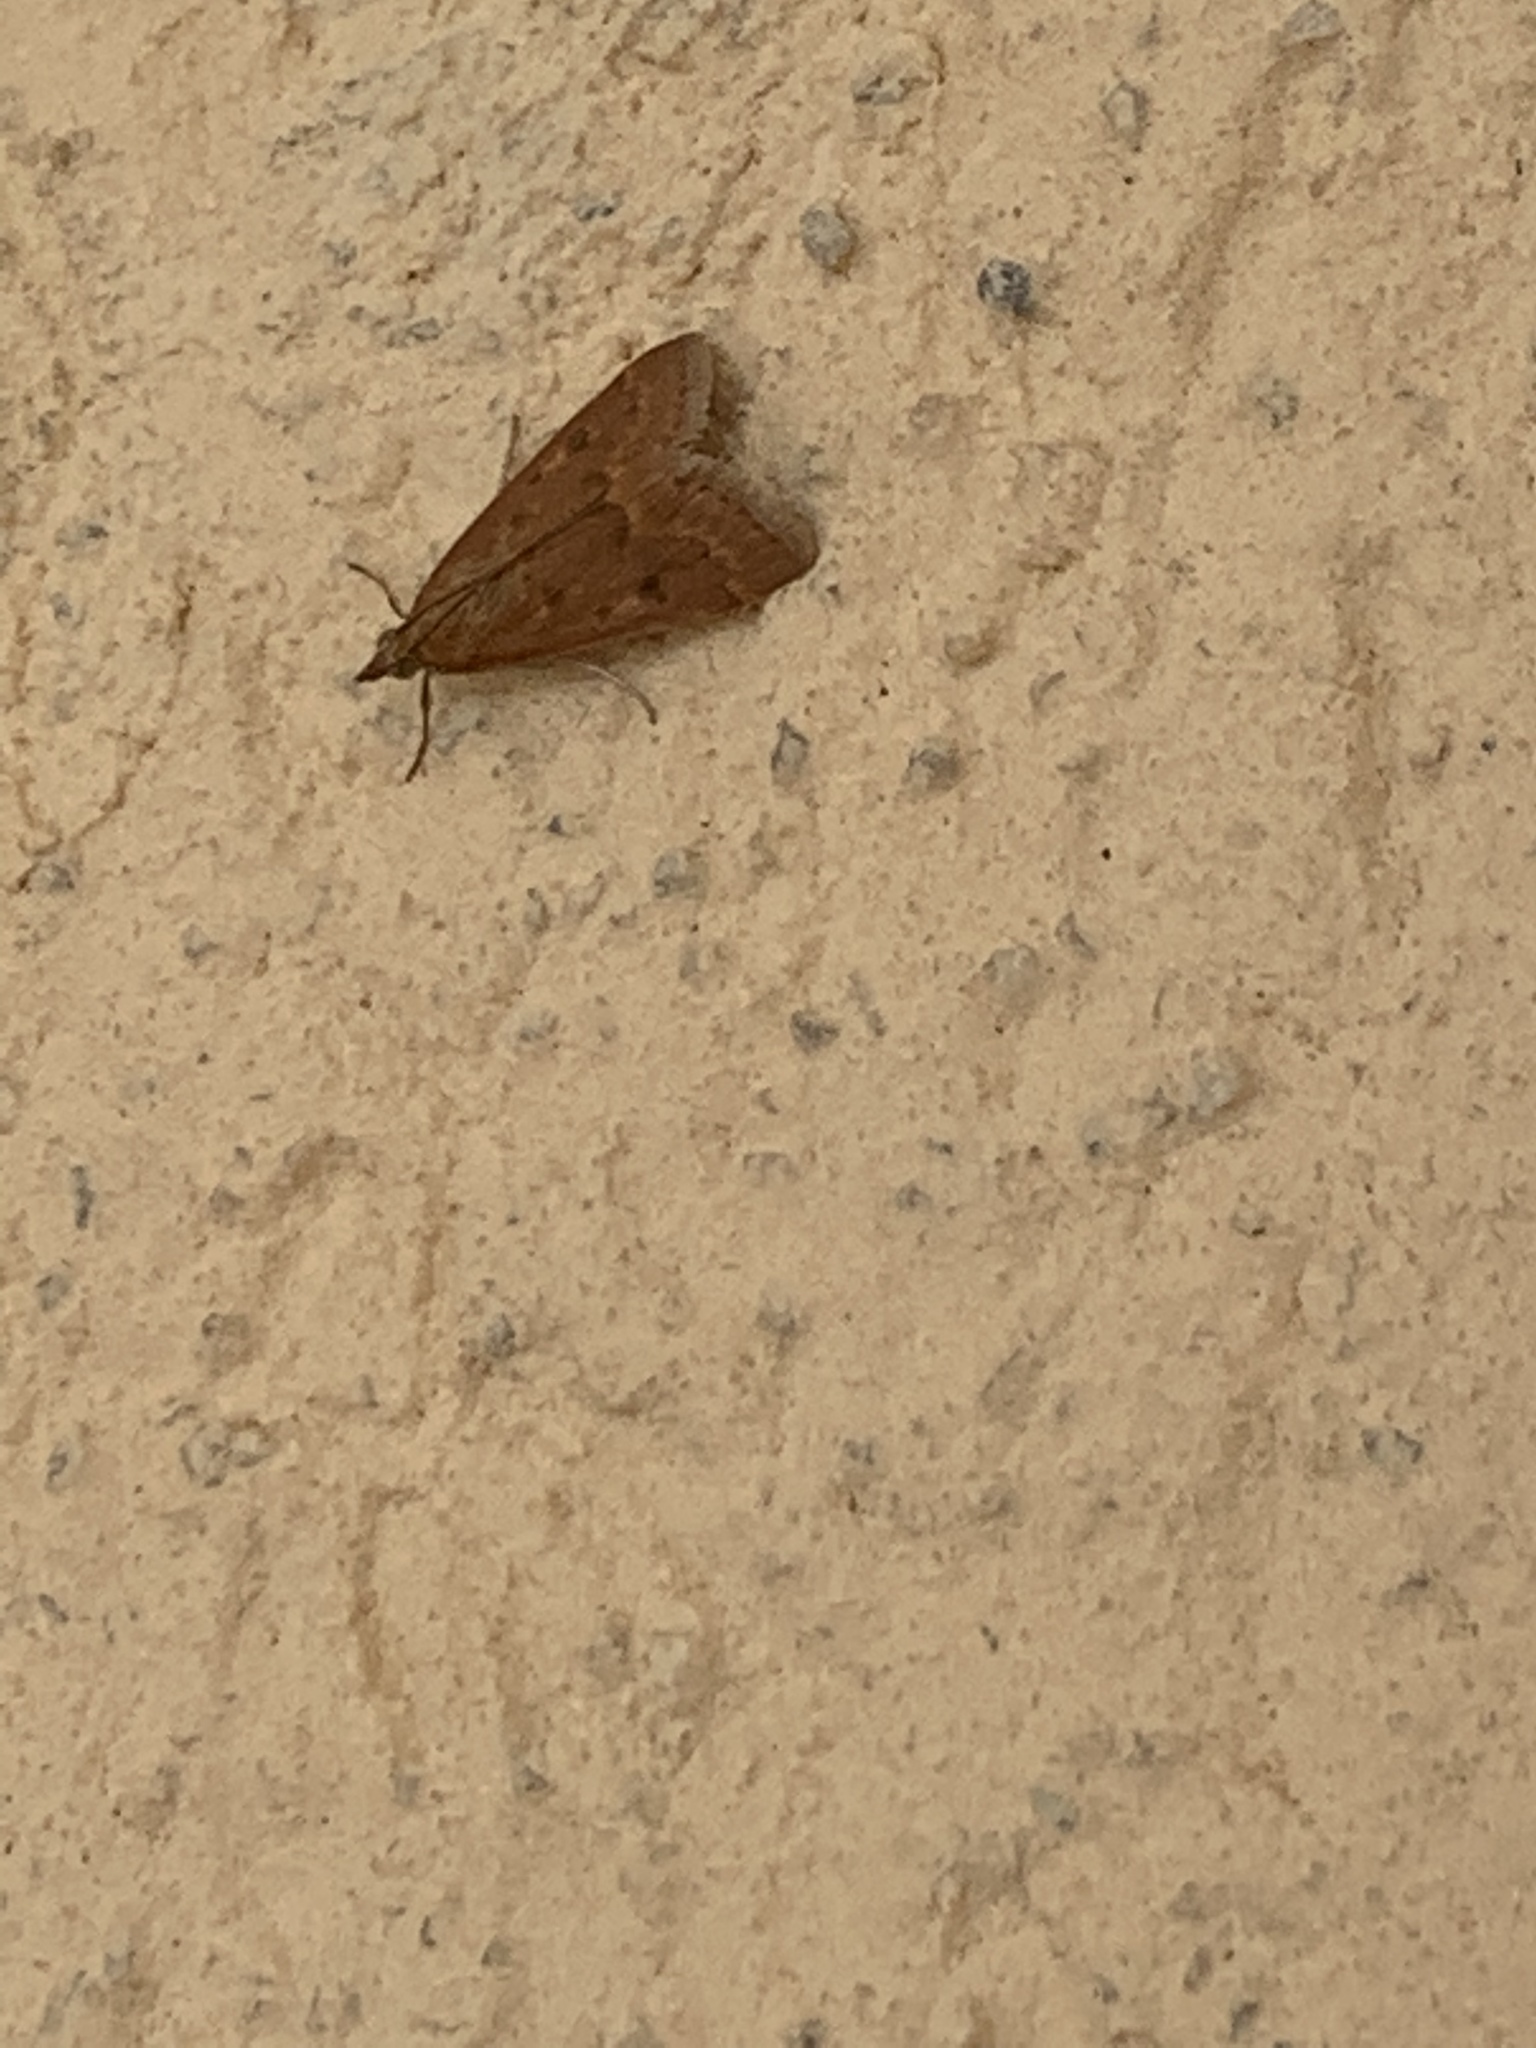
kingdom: Animalia
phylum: Arthropoda
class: Insecta
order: Lepidoptera
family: Crambidae
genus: Achyra
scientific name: Achyra rantalis
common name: Garden webworm
